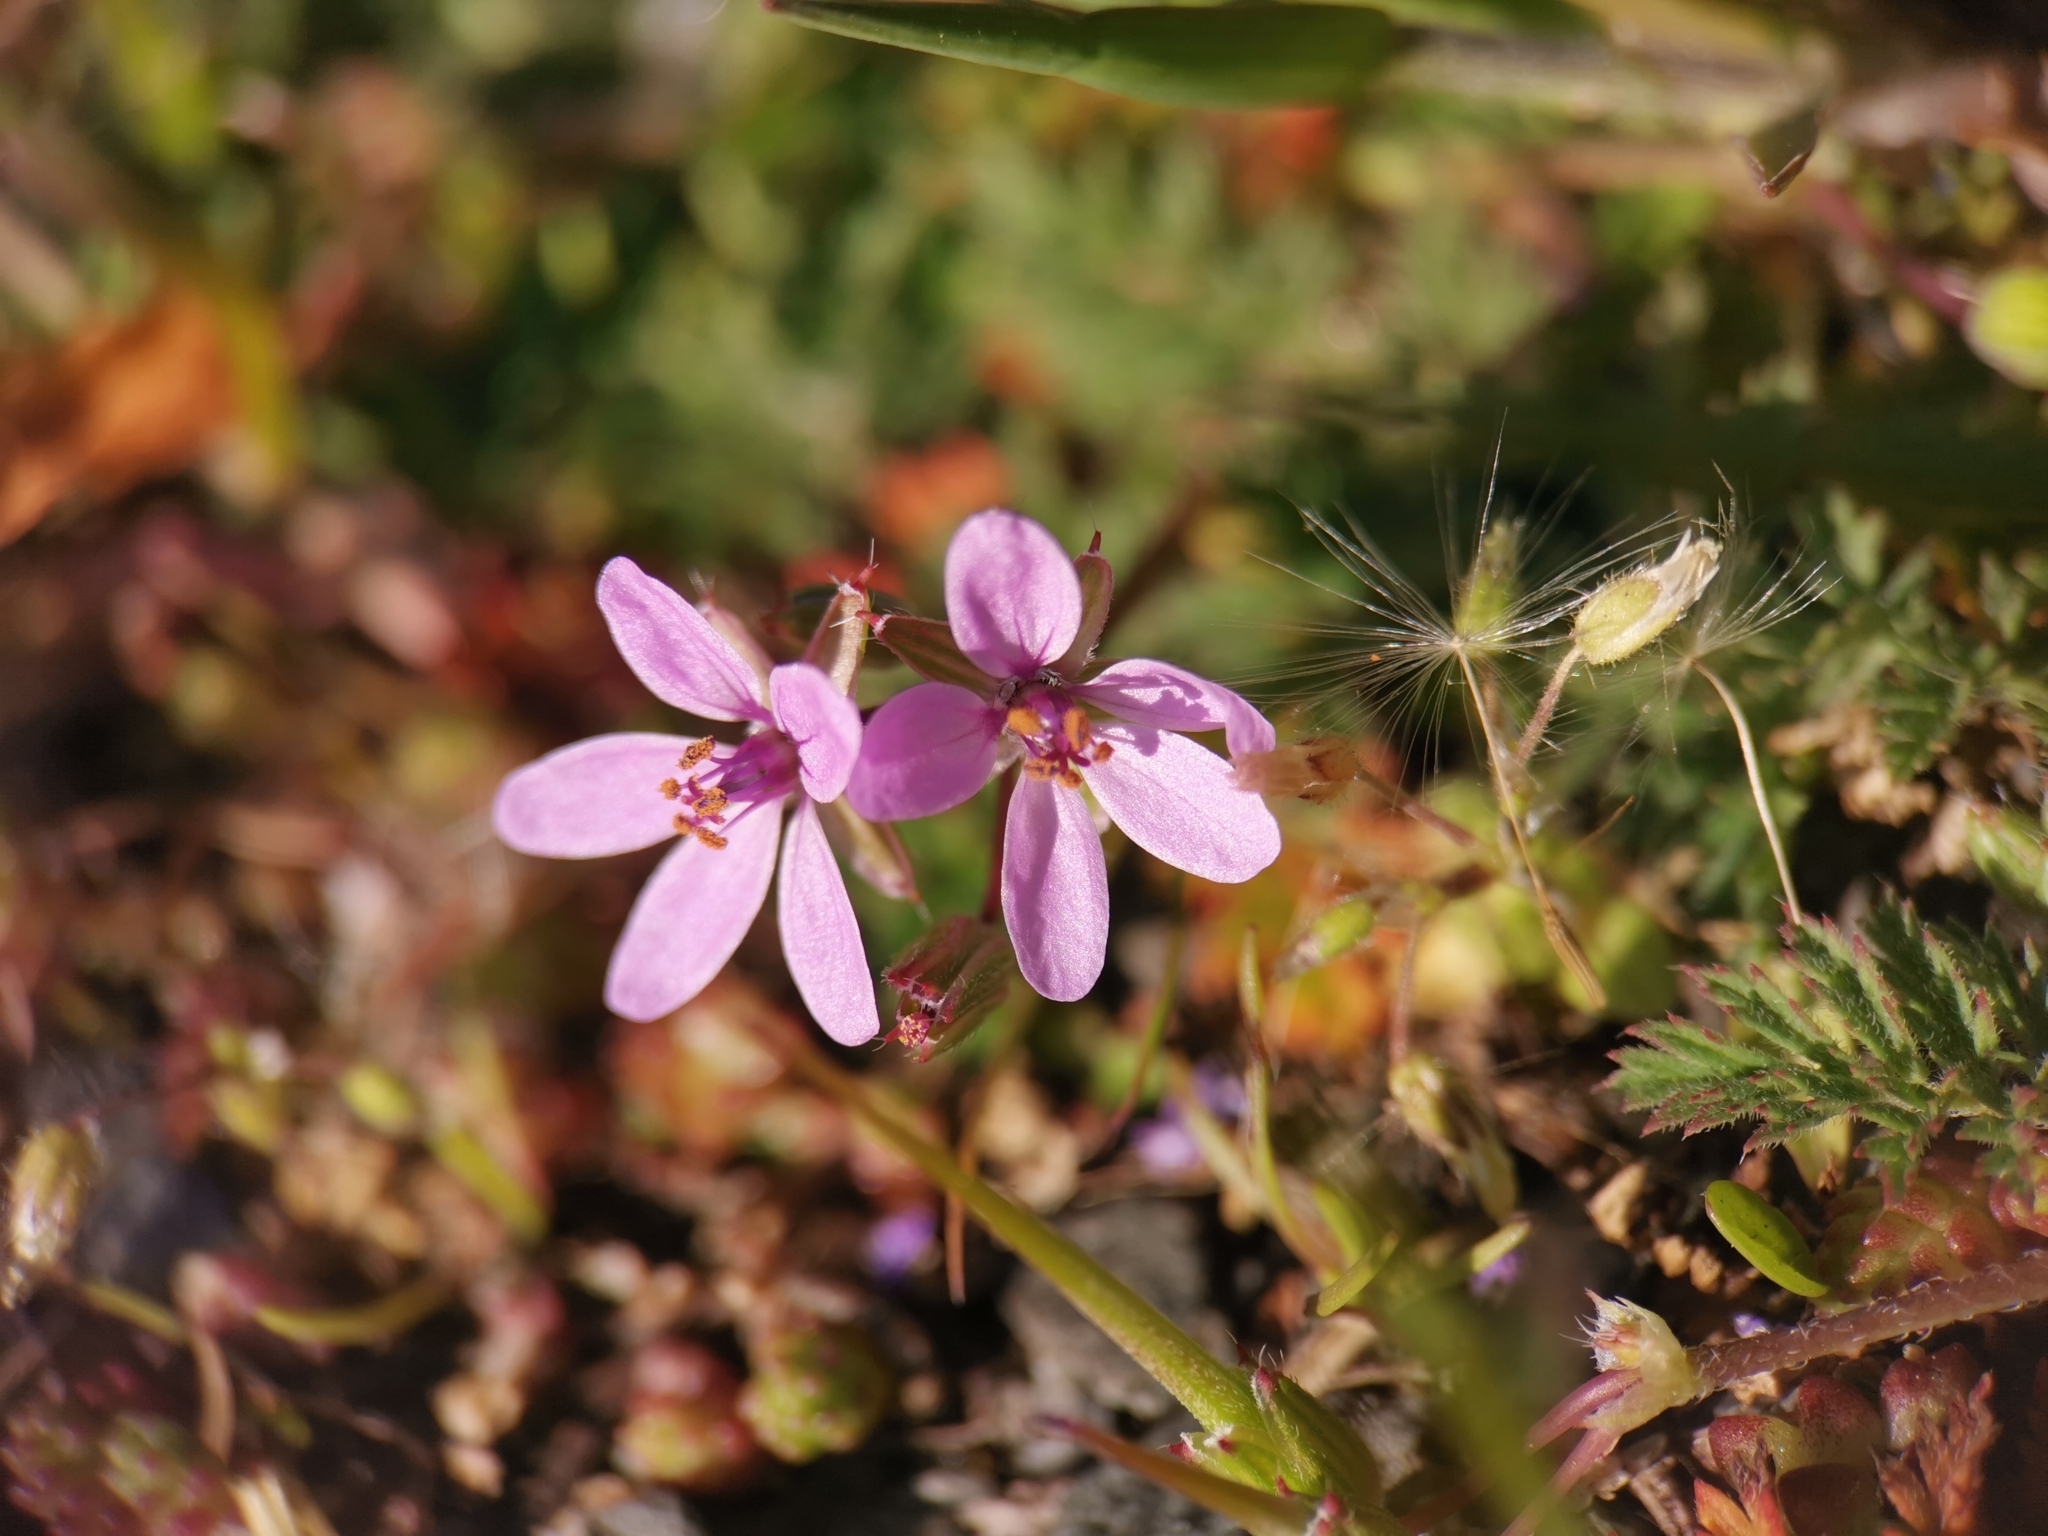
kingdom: Plantae
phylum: Tracheophyta
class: Magnoliopsida
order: Geraniales
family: Geraniaceae
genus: Erodium
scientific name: Erodium cicutarium
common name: Common stork's-bill
